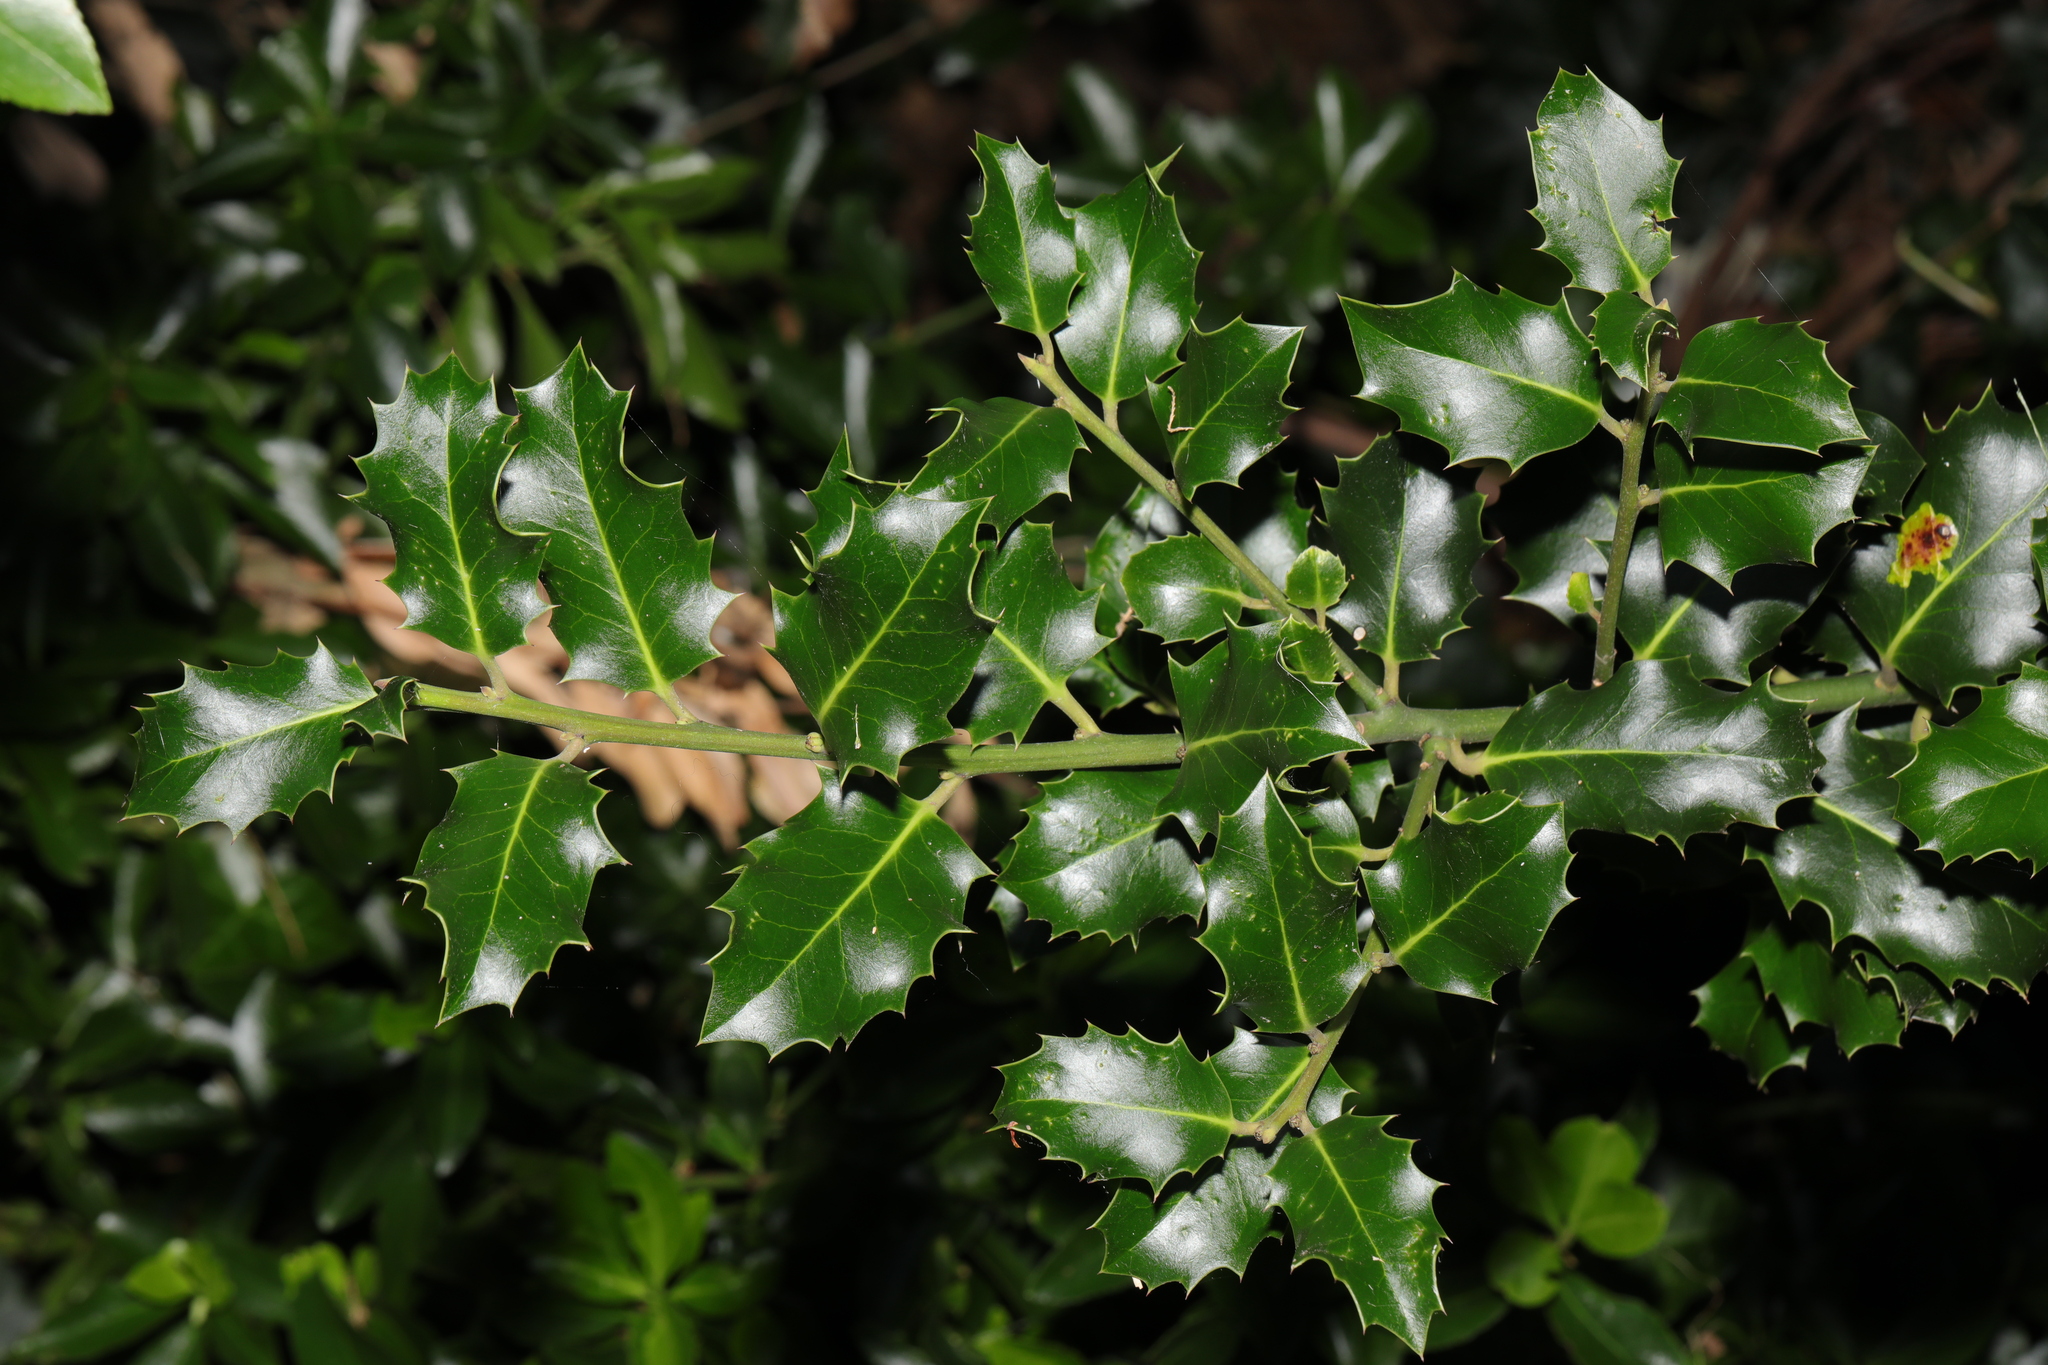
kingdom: Plantae
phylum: Tracheophyta
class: Magnoliopsida
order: Aquifoliales
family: Aquifoliaceae
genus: Ilex
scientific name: Ilex aquifolium
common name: English holly
